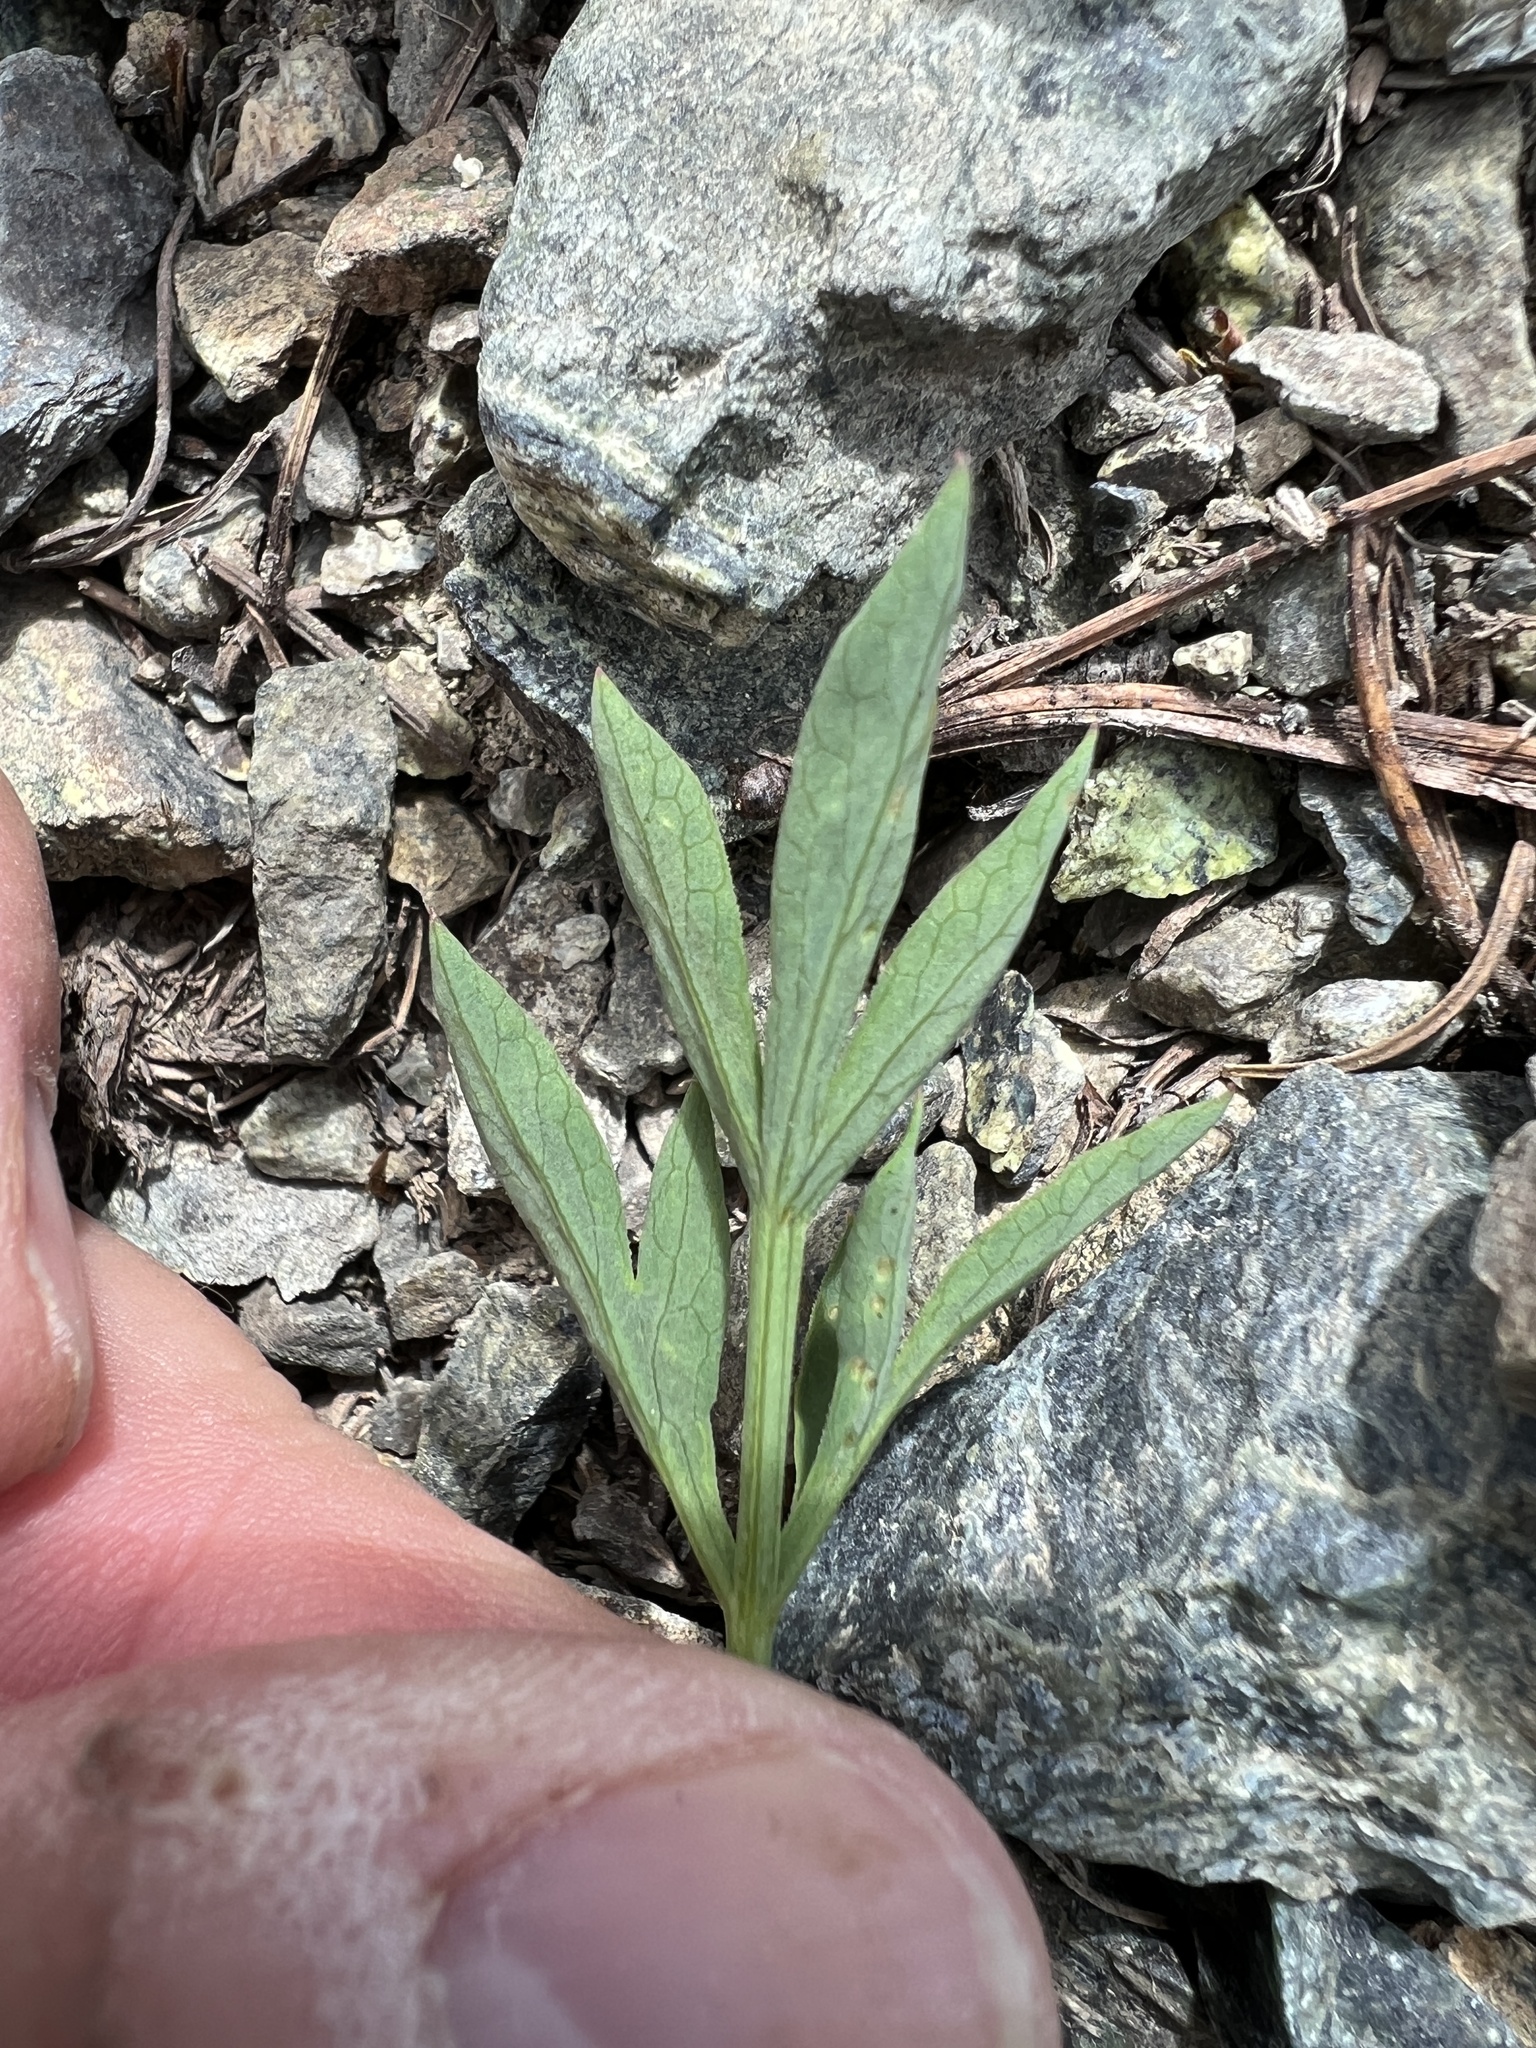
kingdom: Plantae
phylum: Tracheophyta
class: Magnoliopsida
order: Apiales
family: Apiaceae
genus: Lomatium
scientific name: Lomatium brandegeei
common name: Brandegee's desert-parsley
